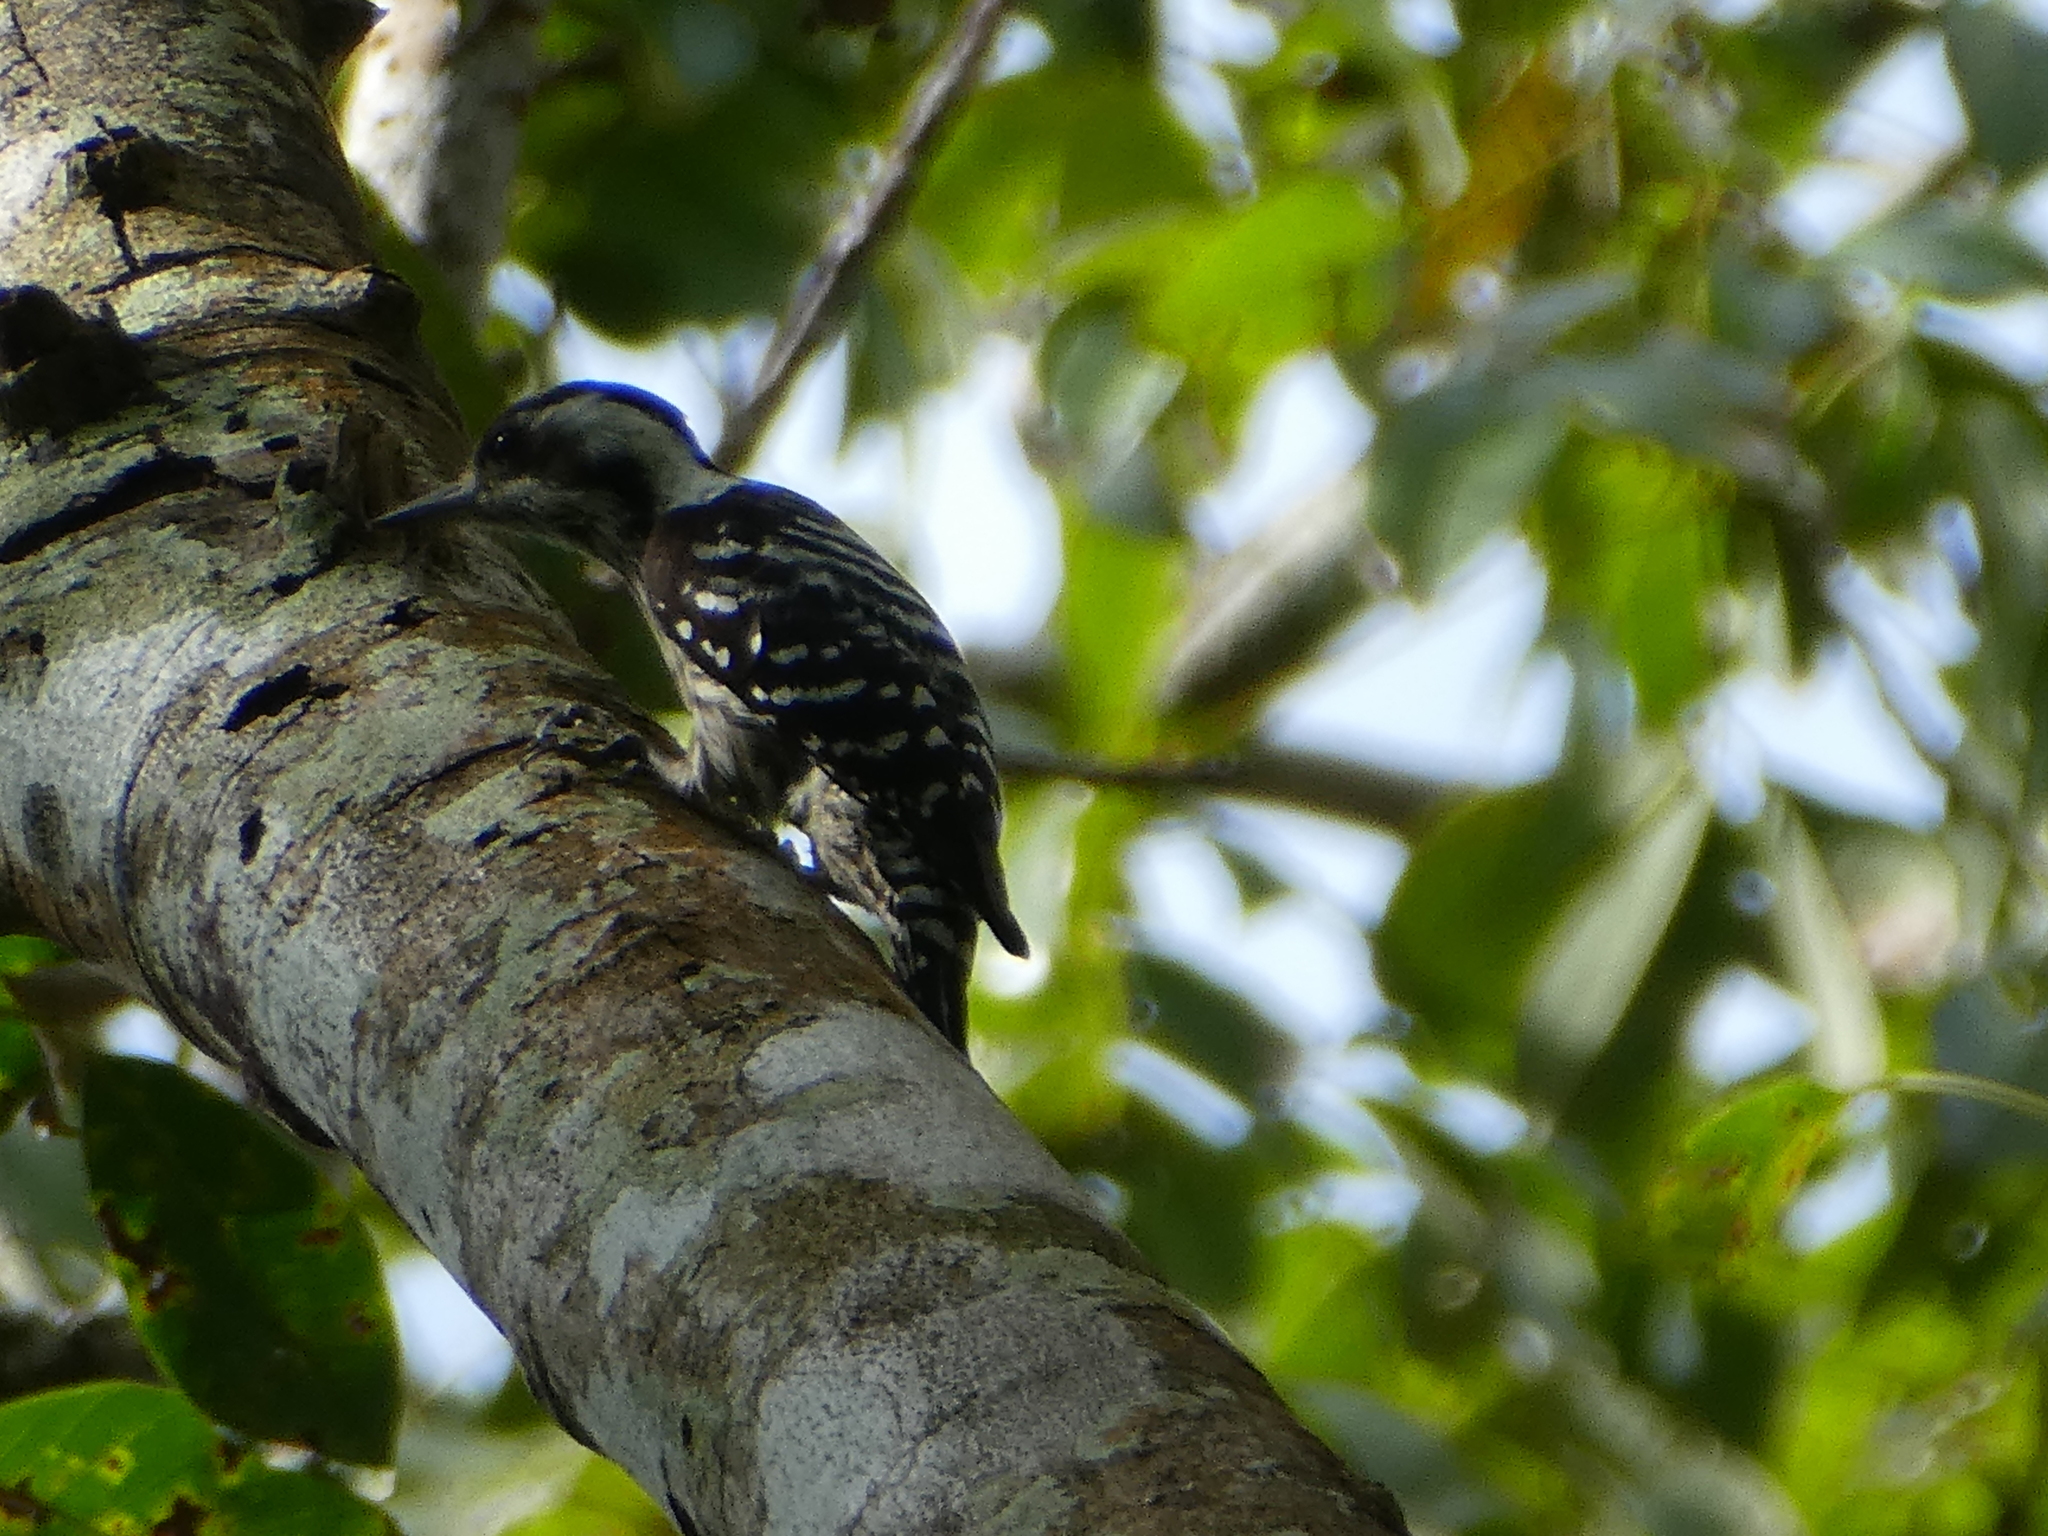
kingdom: Animalia
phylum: Chordata
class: Aves
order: Piciformes
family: Picidae
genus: Yungipicus
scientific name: Yungipicus canicapillus
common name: Grey-capped pygmy woodpecker
